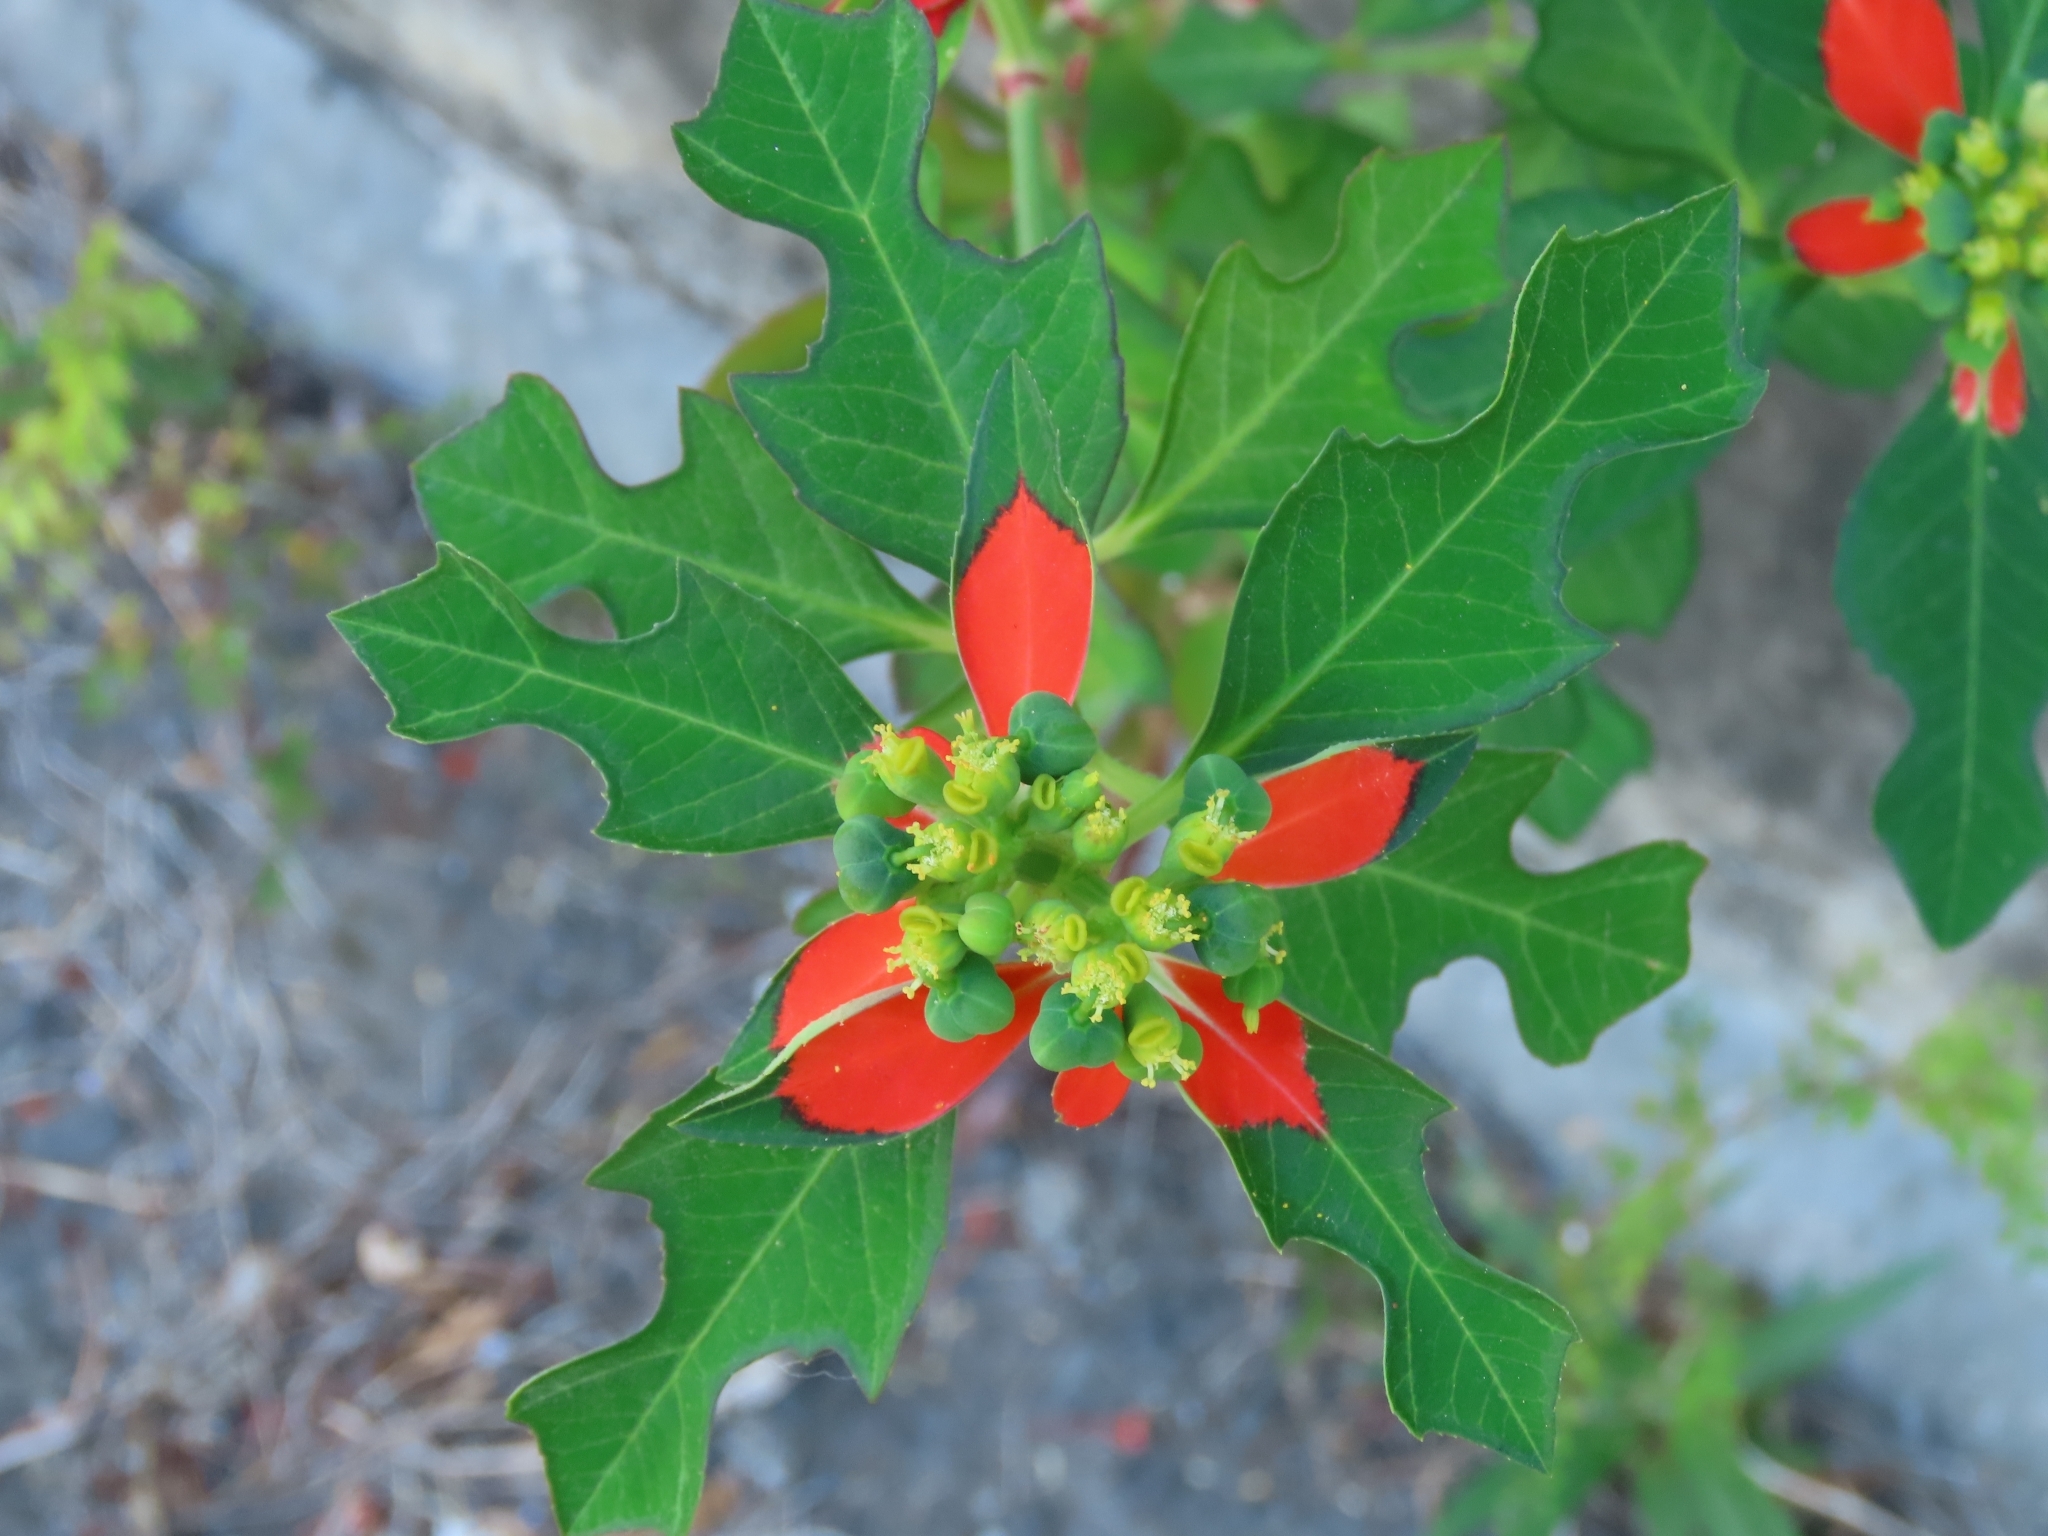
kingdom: Plantae
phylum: Tracheophyta
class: Magnoliopsida
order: Malpighiales
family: Euphorbiaceae
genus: Euphorbia
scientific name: Euphorbia heterophylla
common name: Mexican fireplant
